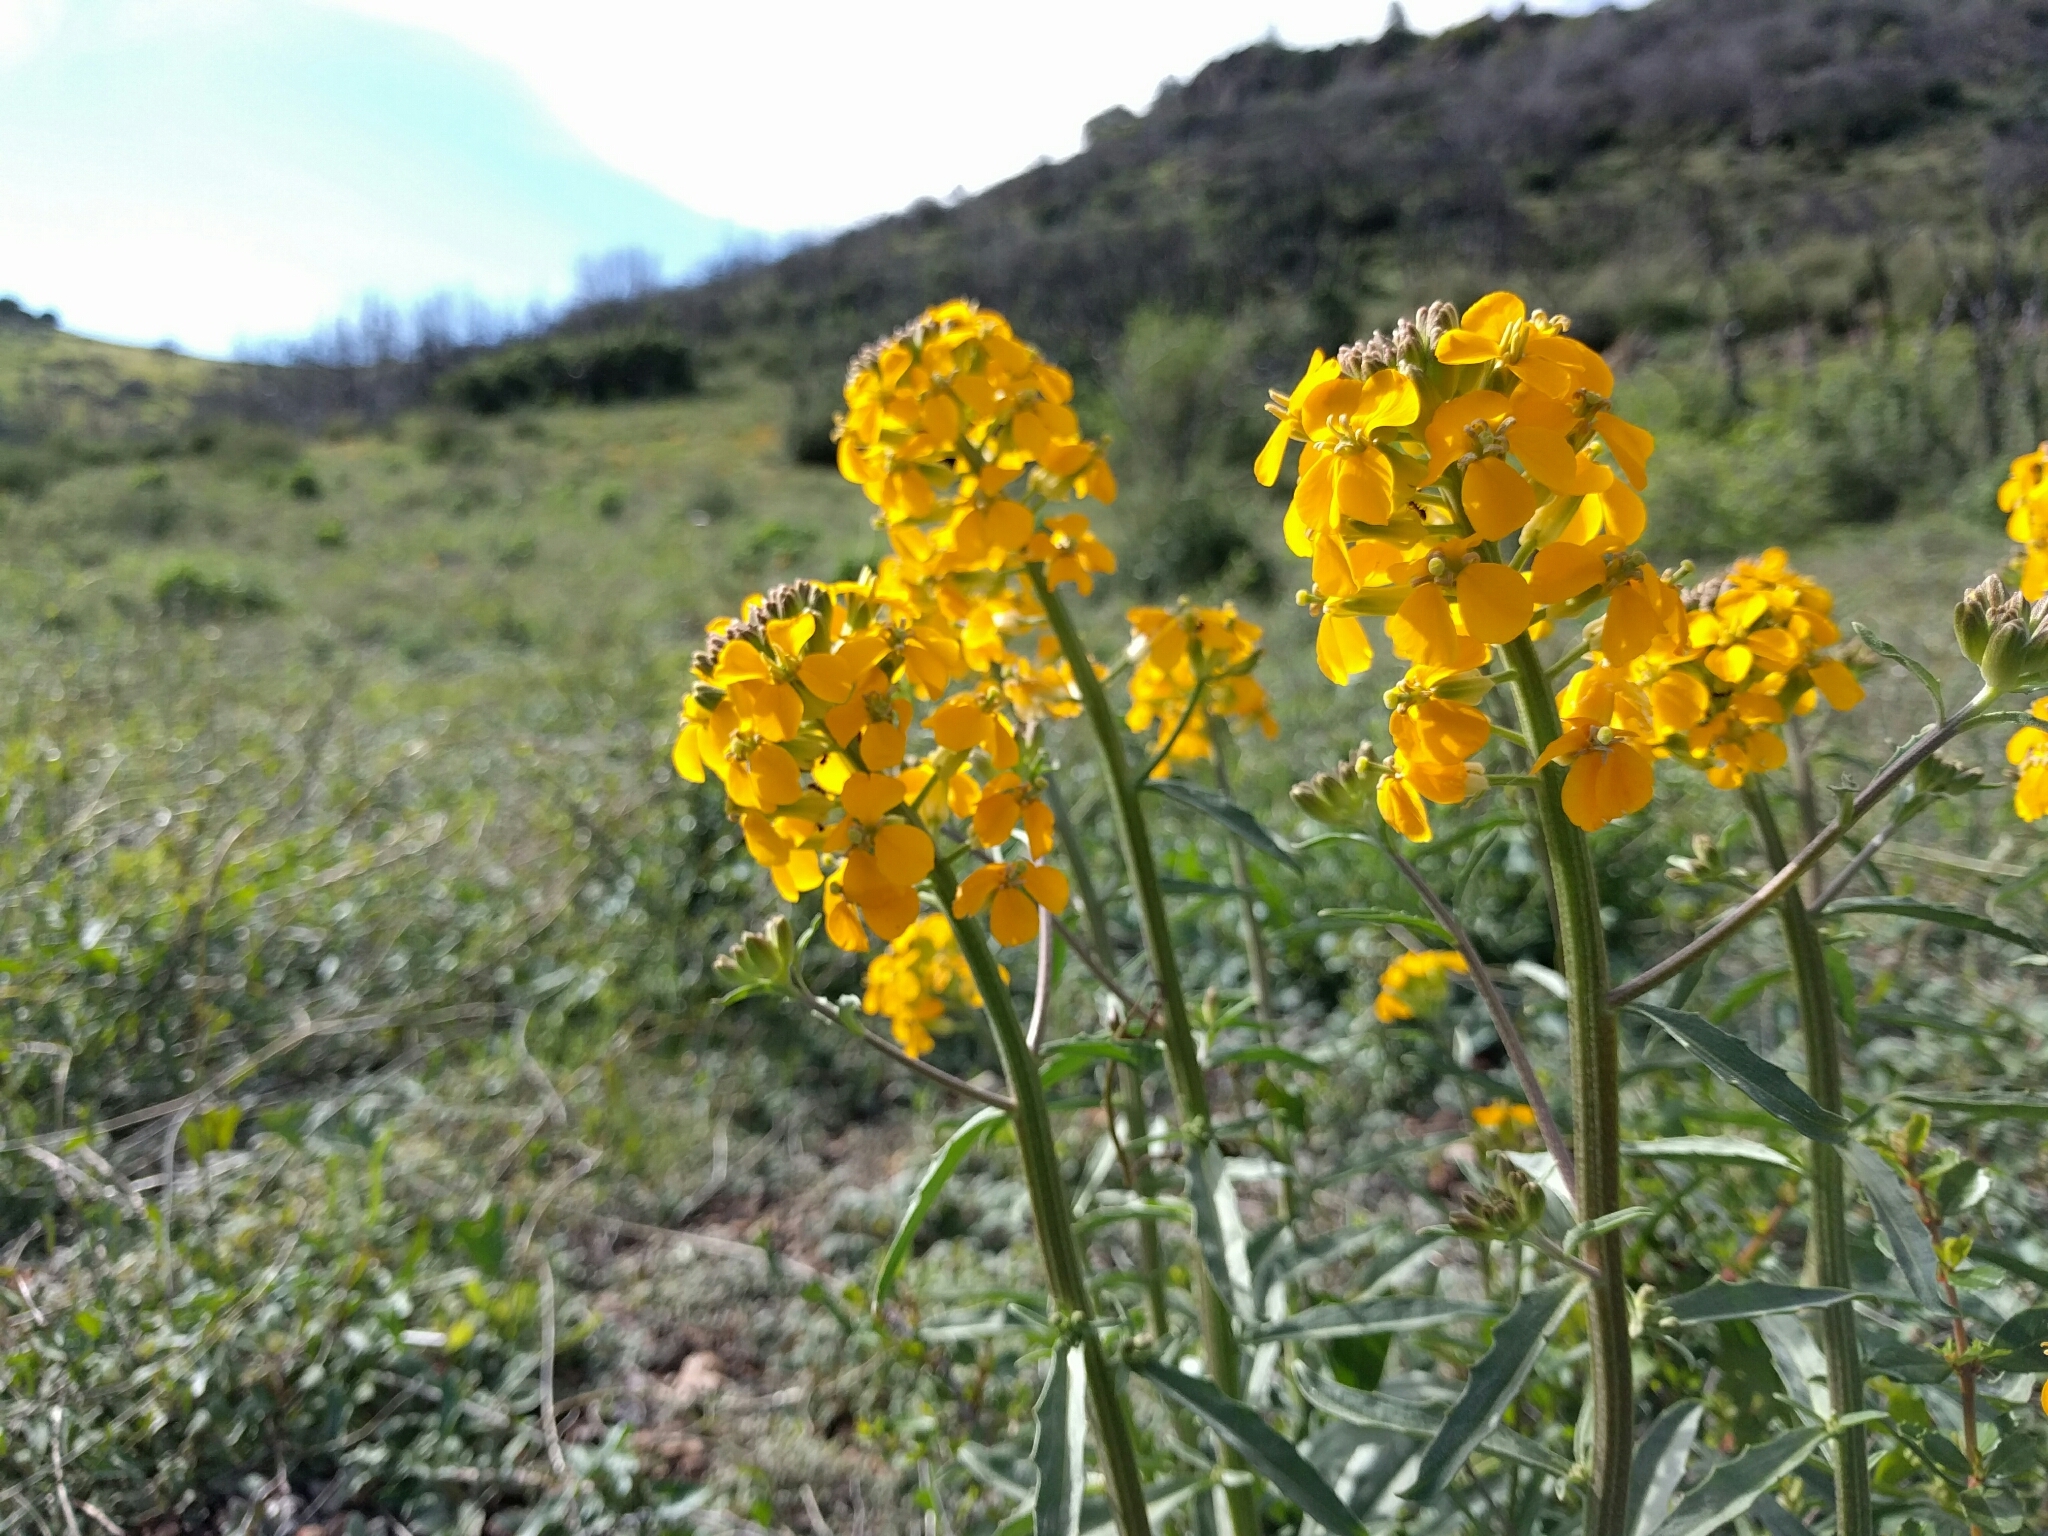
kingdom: Plantae
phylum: Tracheophyta
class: Magnoliopsida
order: Brassicales
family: Brassicaceae
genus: Erysimum
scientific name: Erysimum capitatum
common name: Western wallflower
